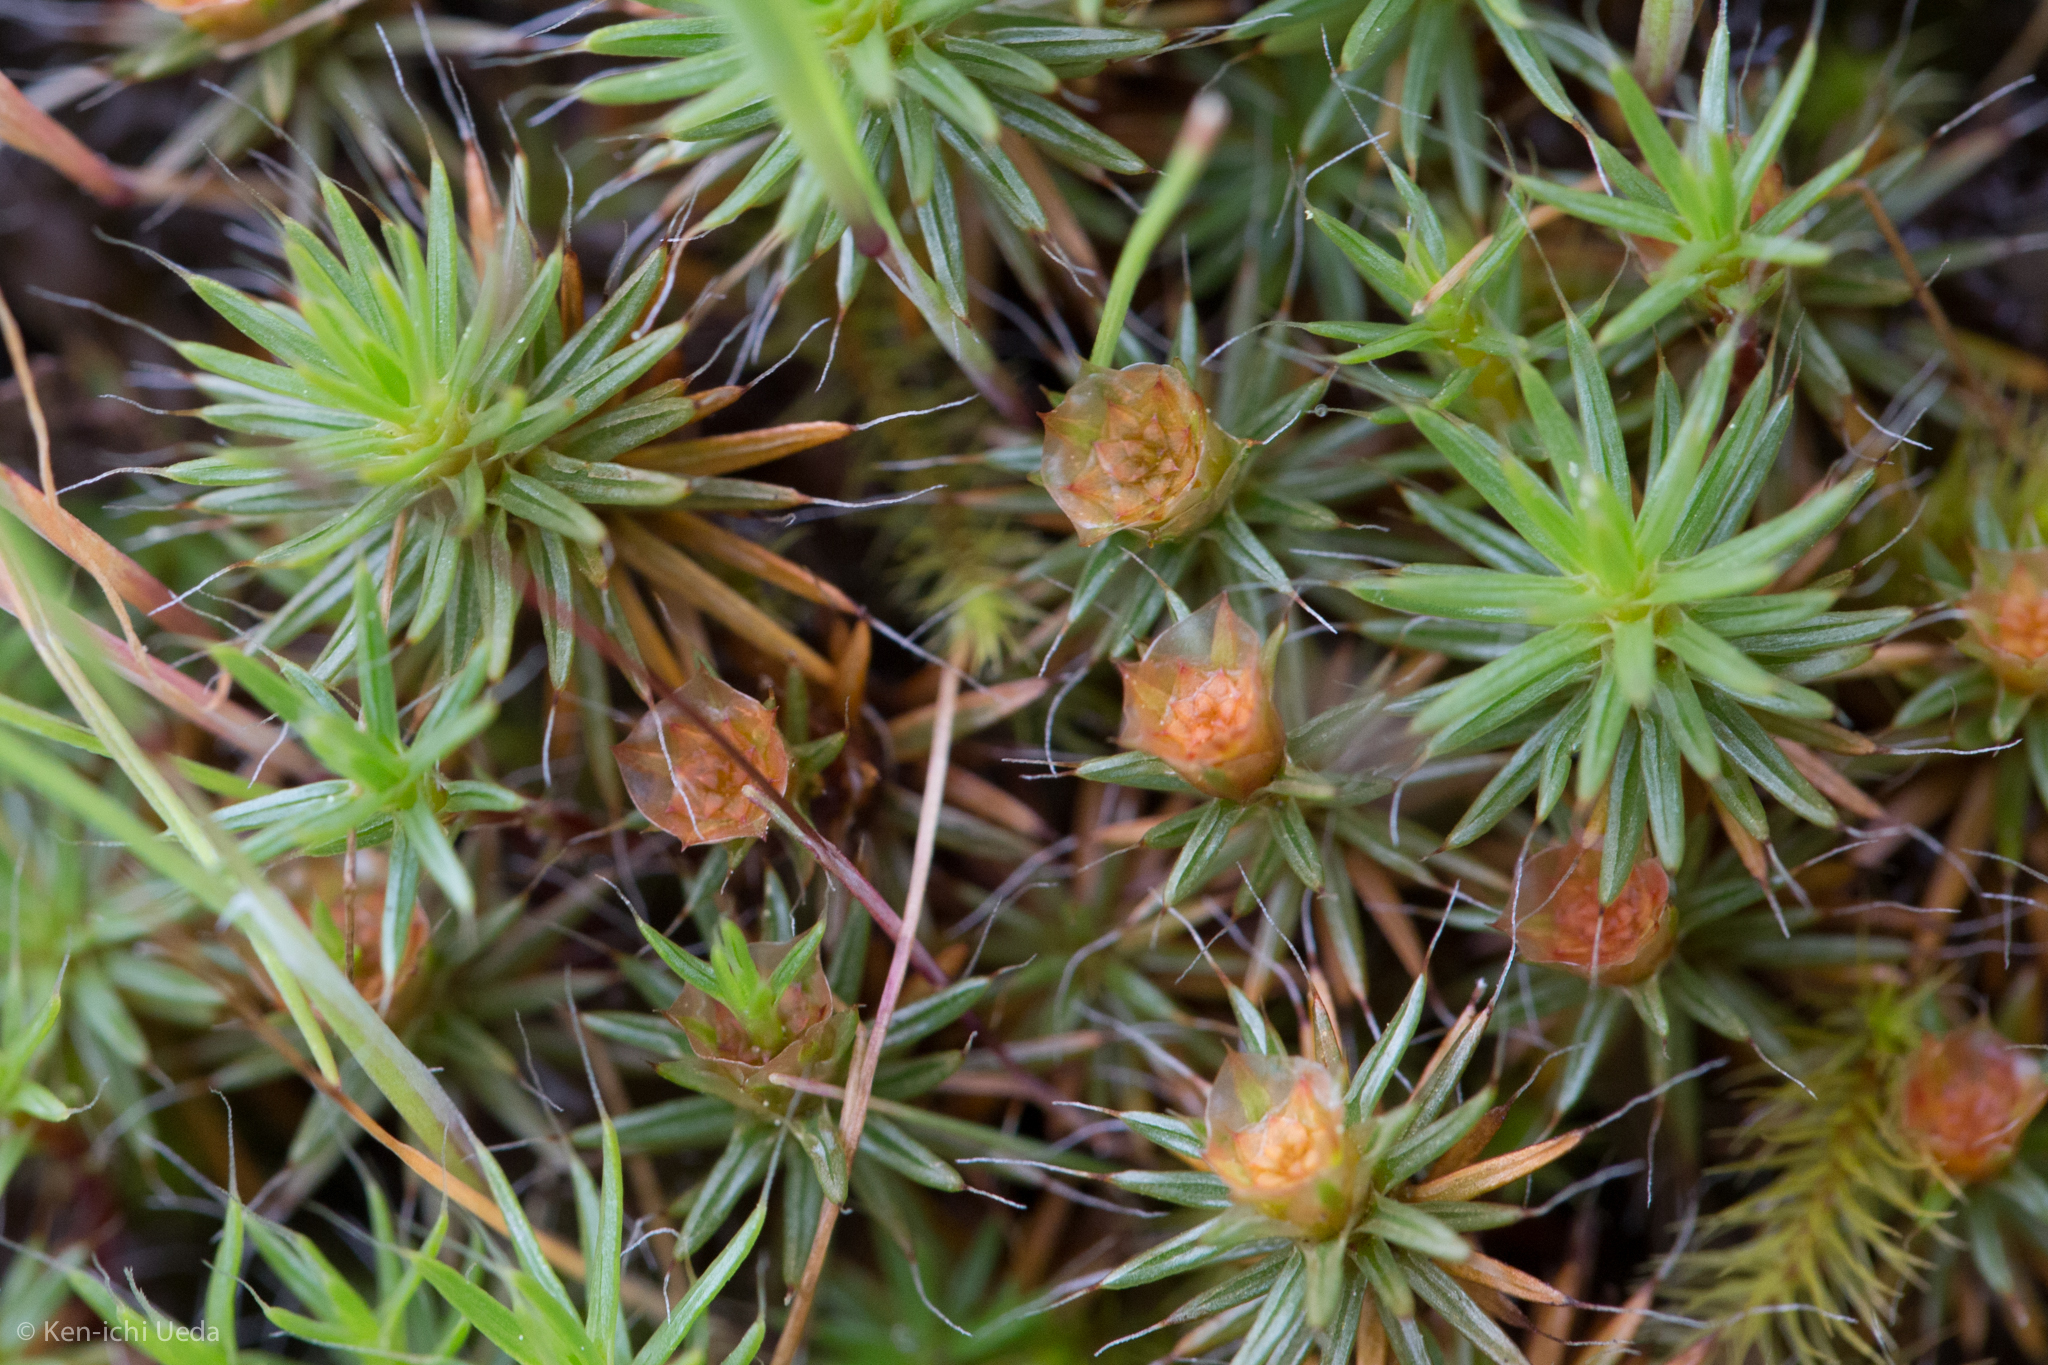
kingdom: Plantae
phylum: Bryophyta
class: Polytrichopsida
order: Polytrichales
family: Polytrichaceae
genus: Polytrichum
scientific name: Polytrichum piliferum
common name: Bristly haircap
